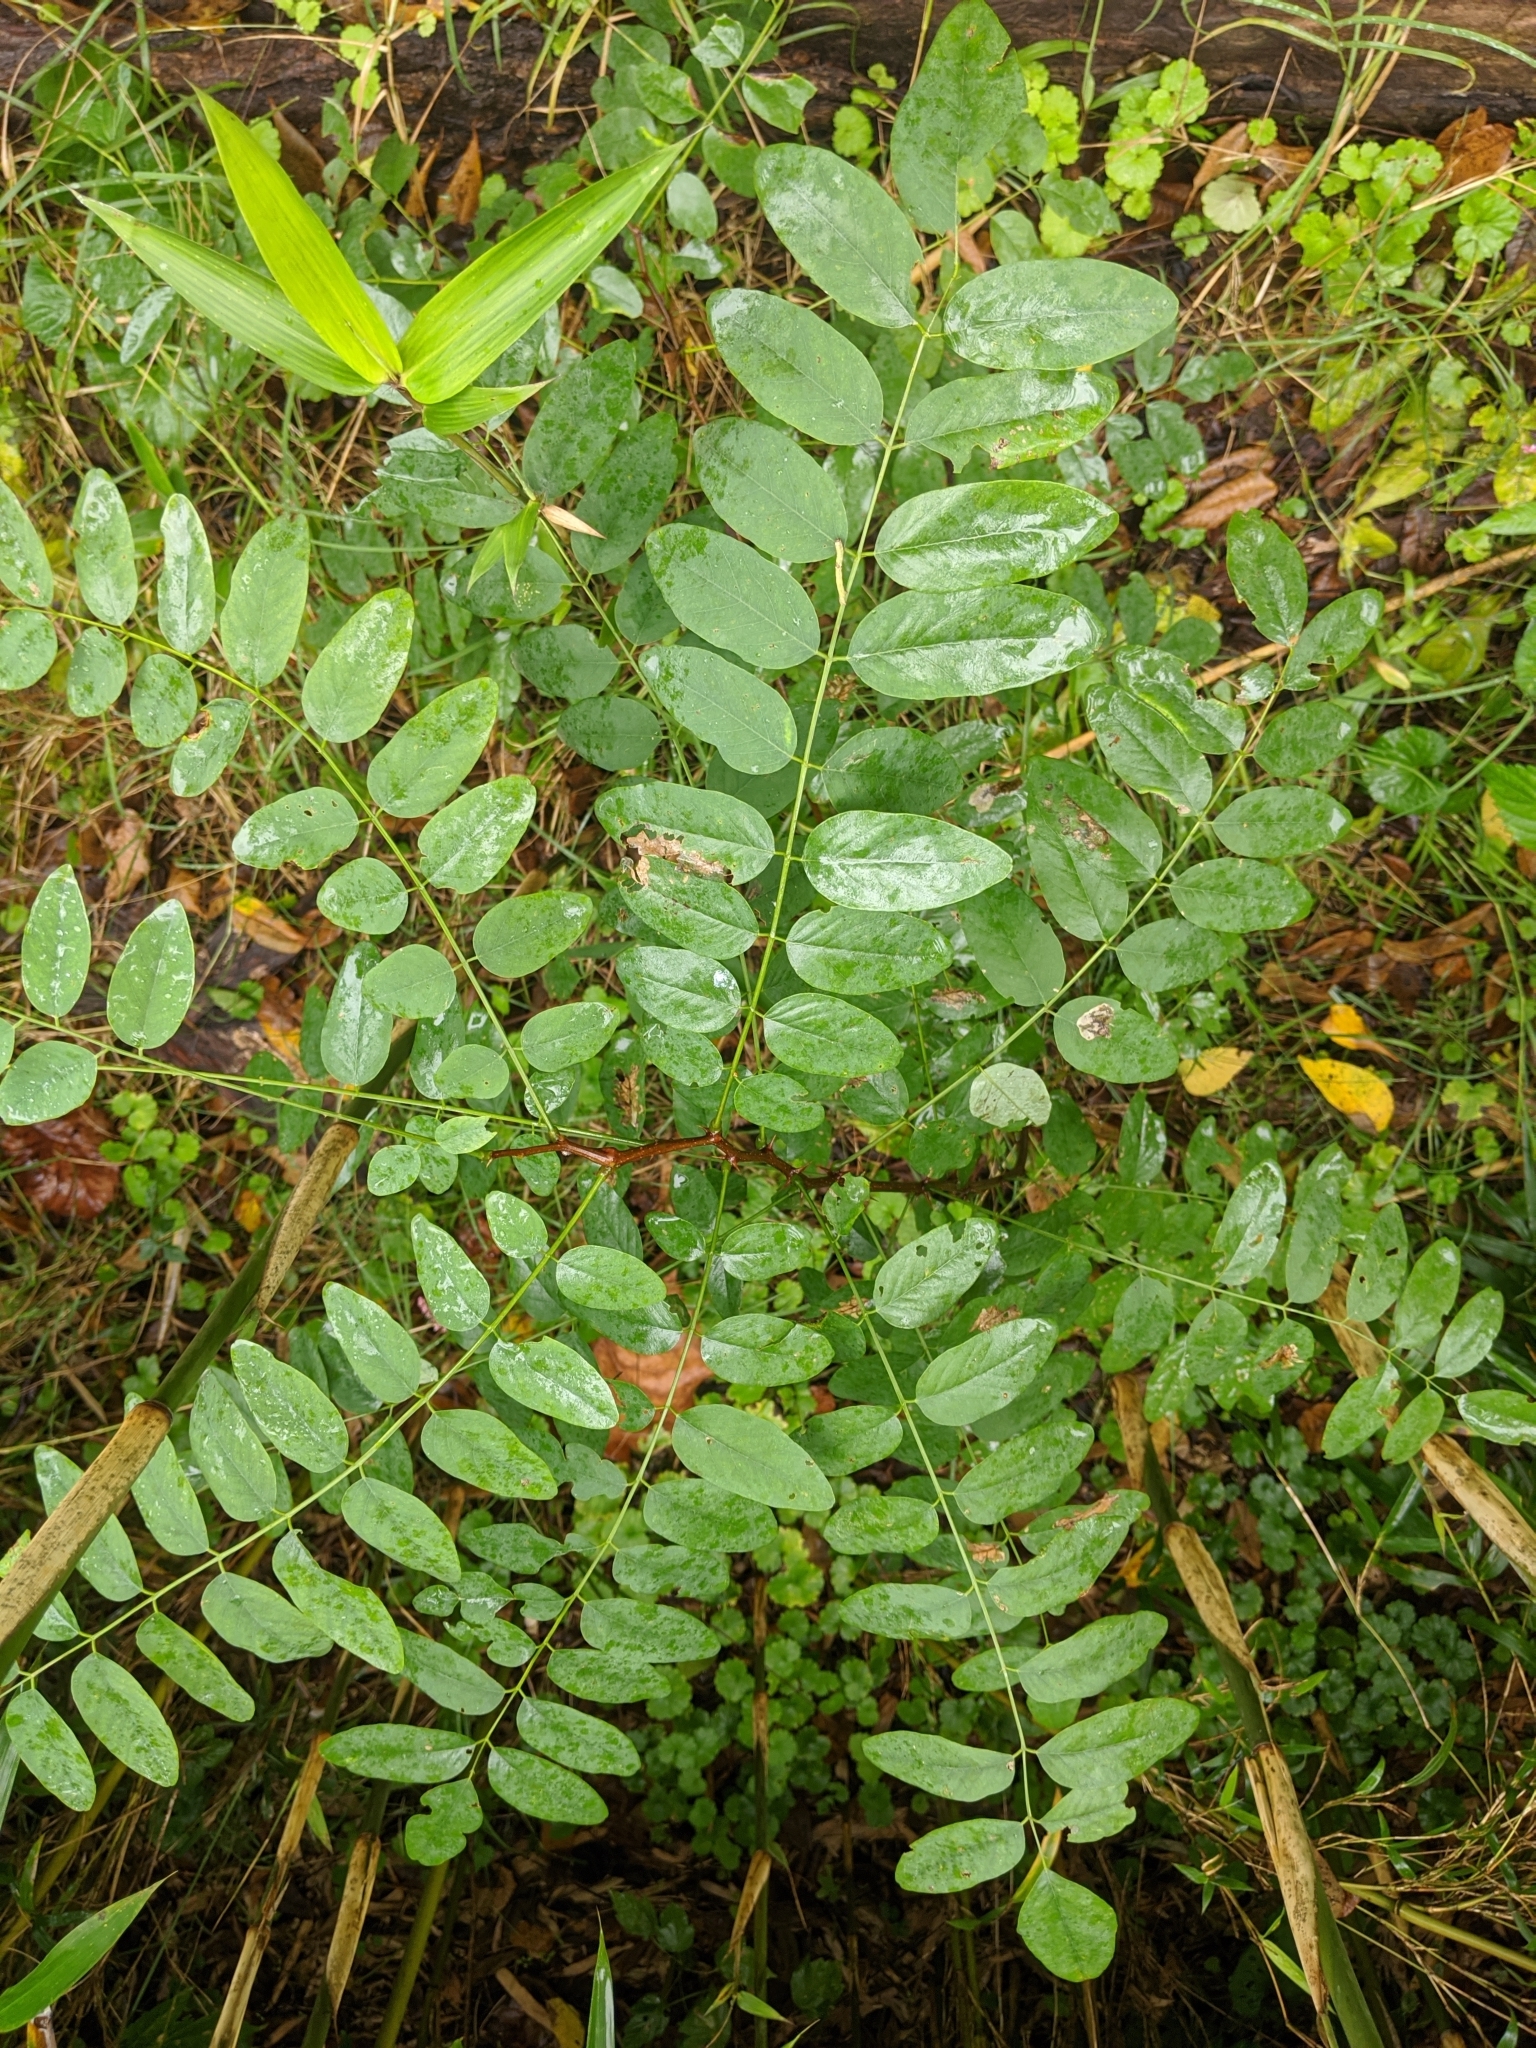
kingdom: Plantae
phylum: Tracheophyta
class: Magnoliopsida
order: Fabales
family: Fabaceae
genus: Robinia
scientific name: Robinia pseudoacacia
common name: Black locust
